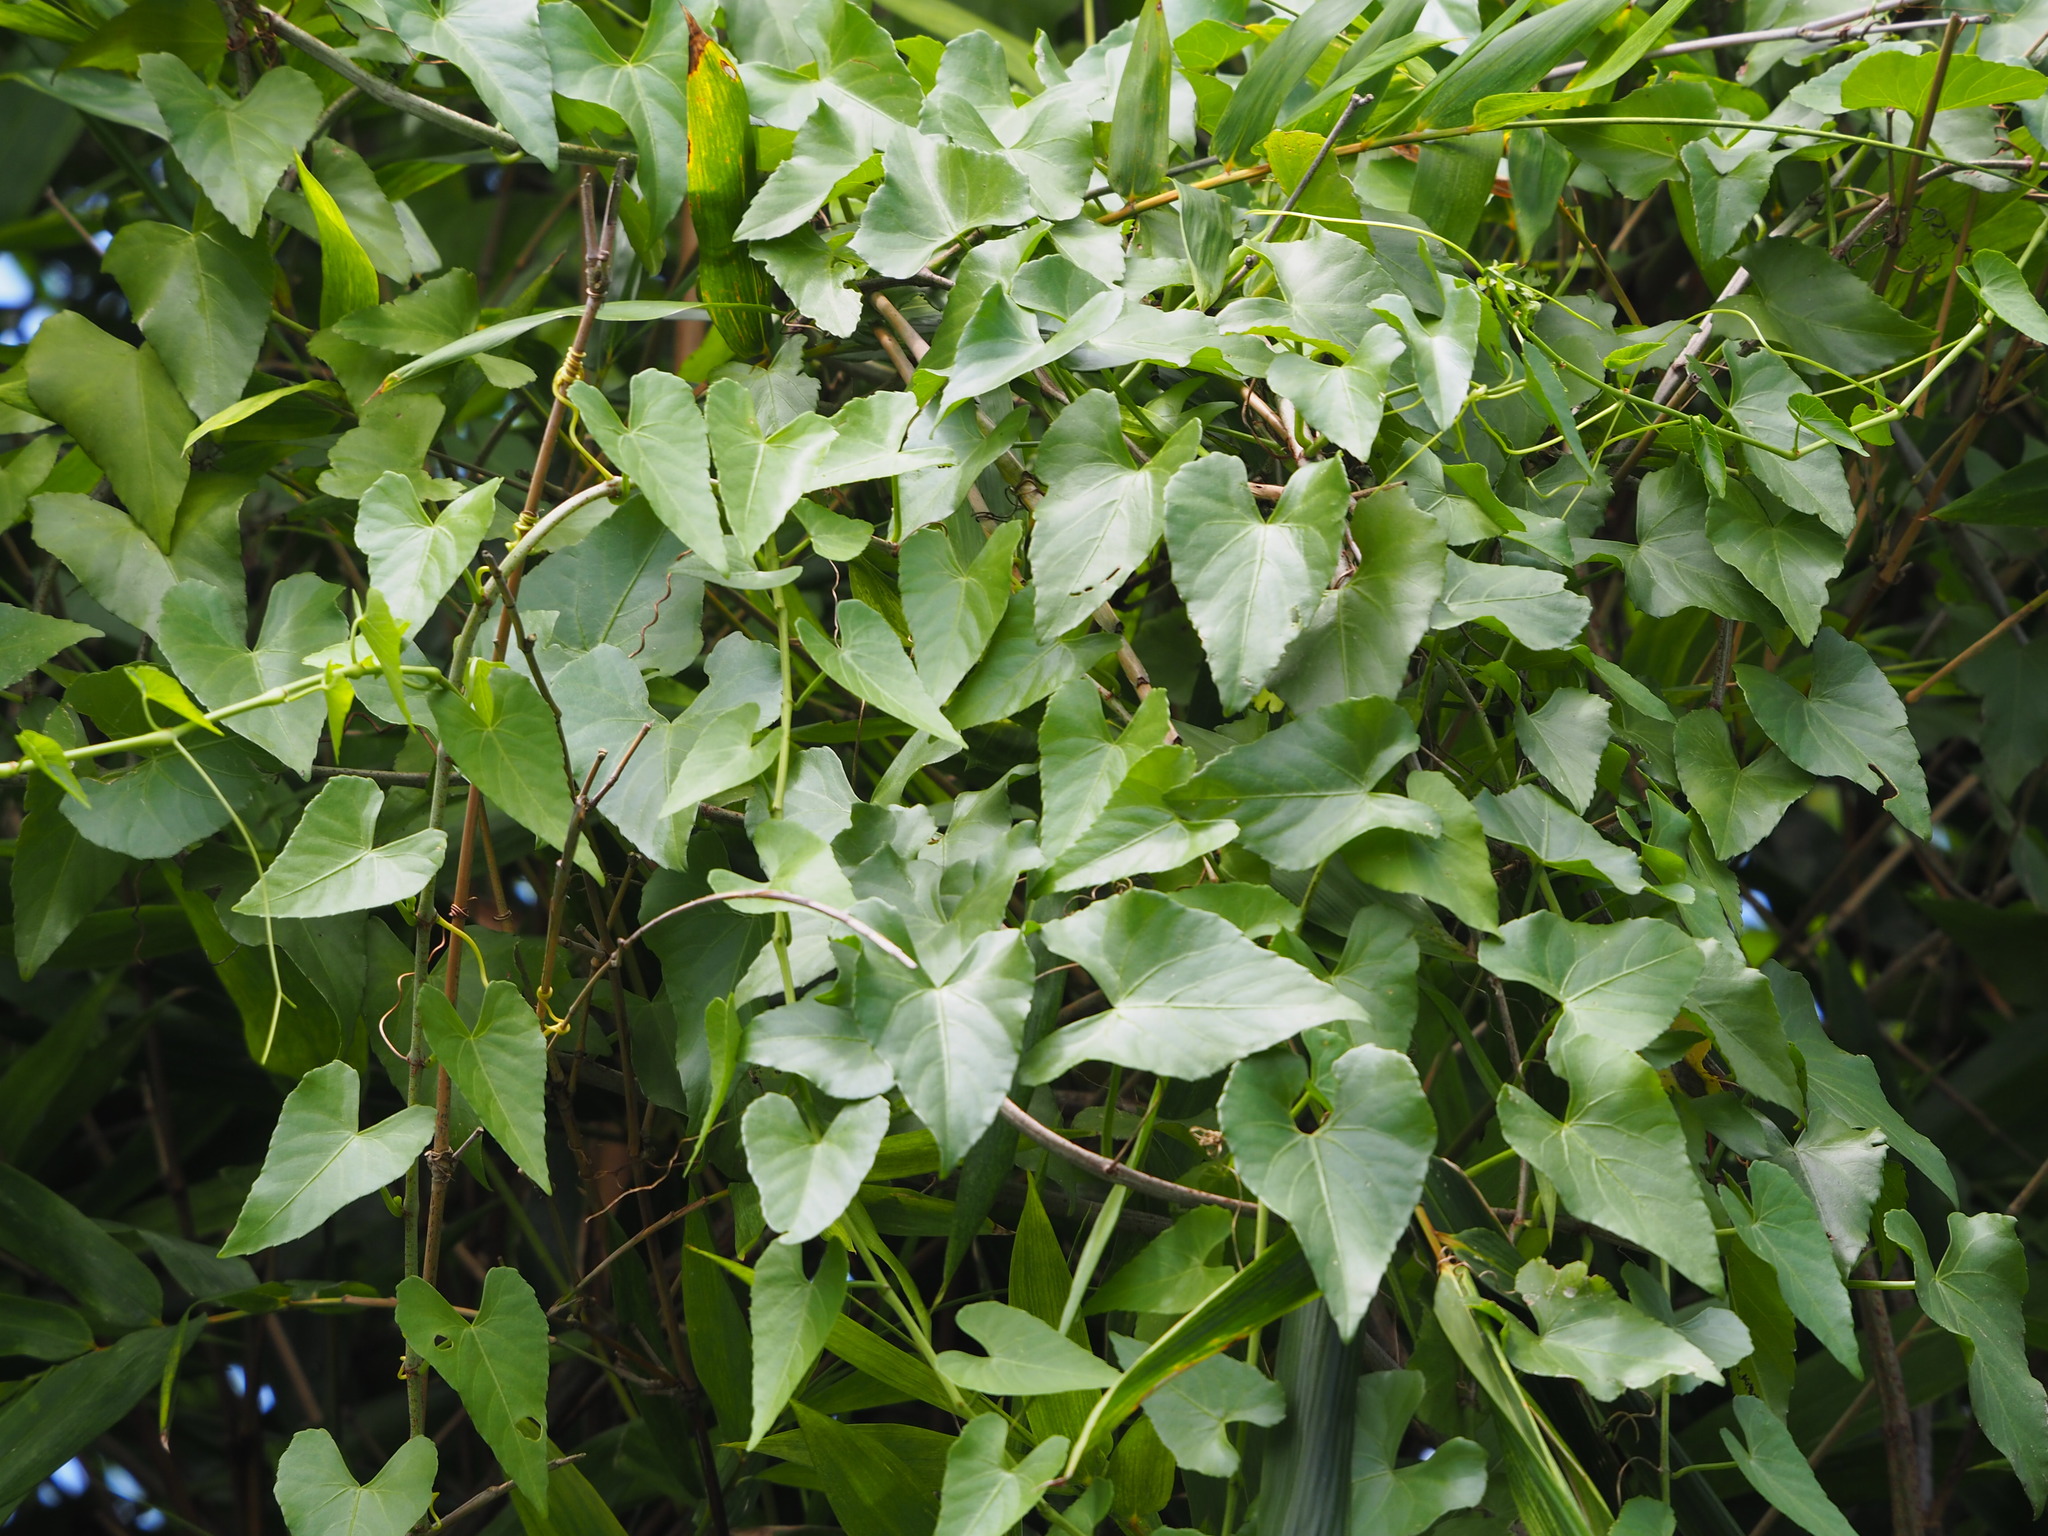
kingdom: Plantae
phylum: Tracheophyta
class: Magnoliopsida
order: Vitales
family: Vitaceae
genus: Cissus
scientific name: Cissus verticillata
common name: Princess vine
